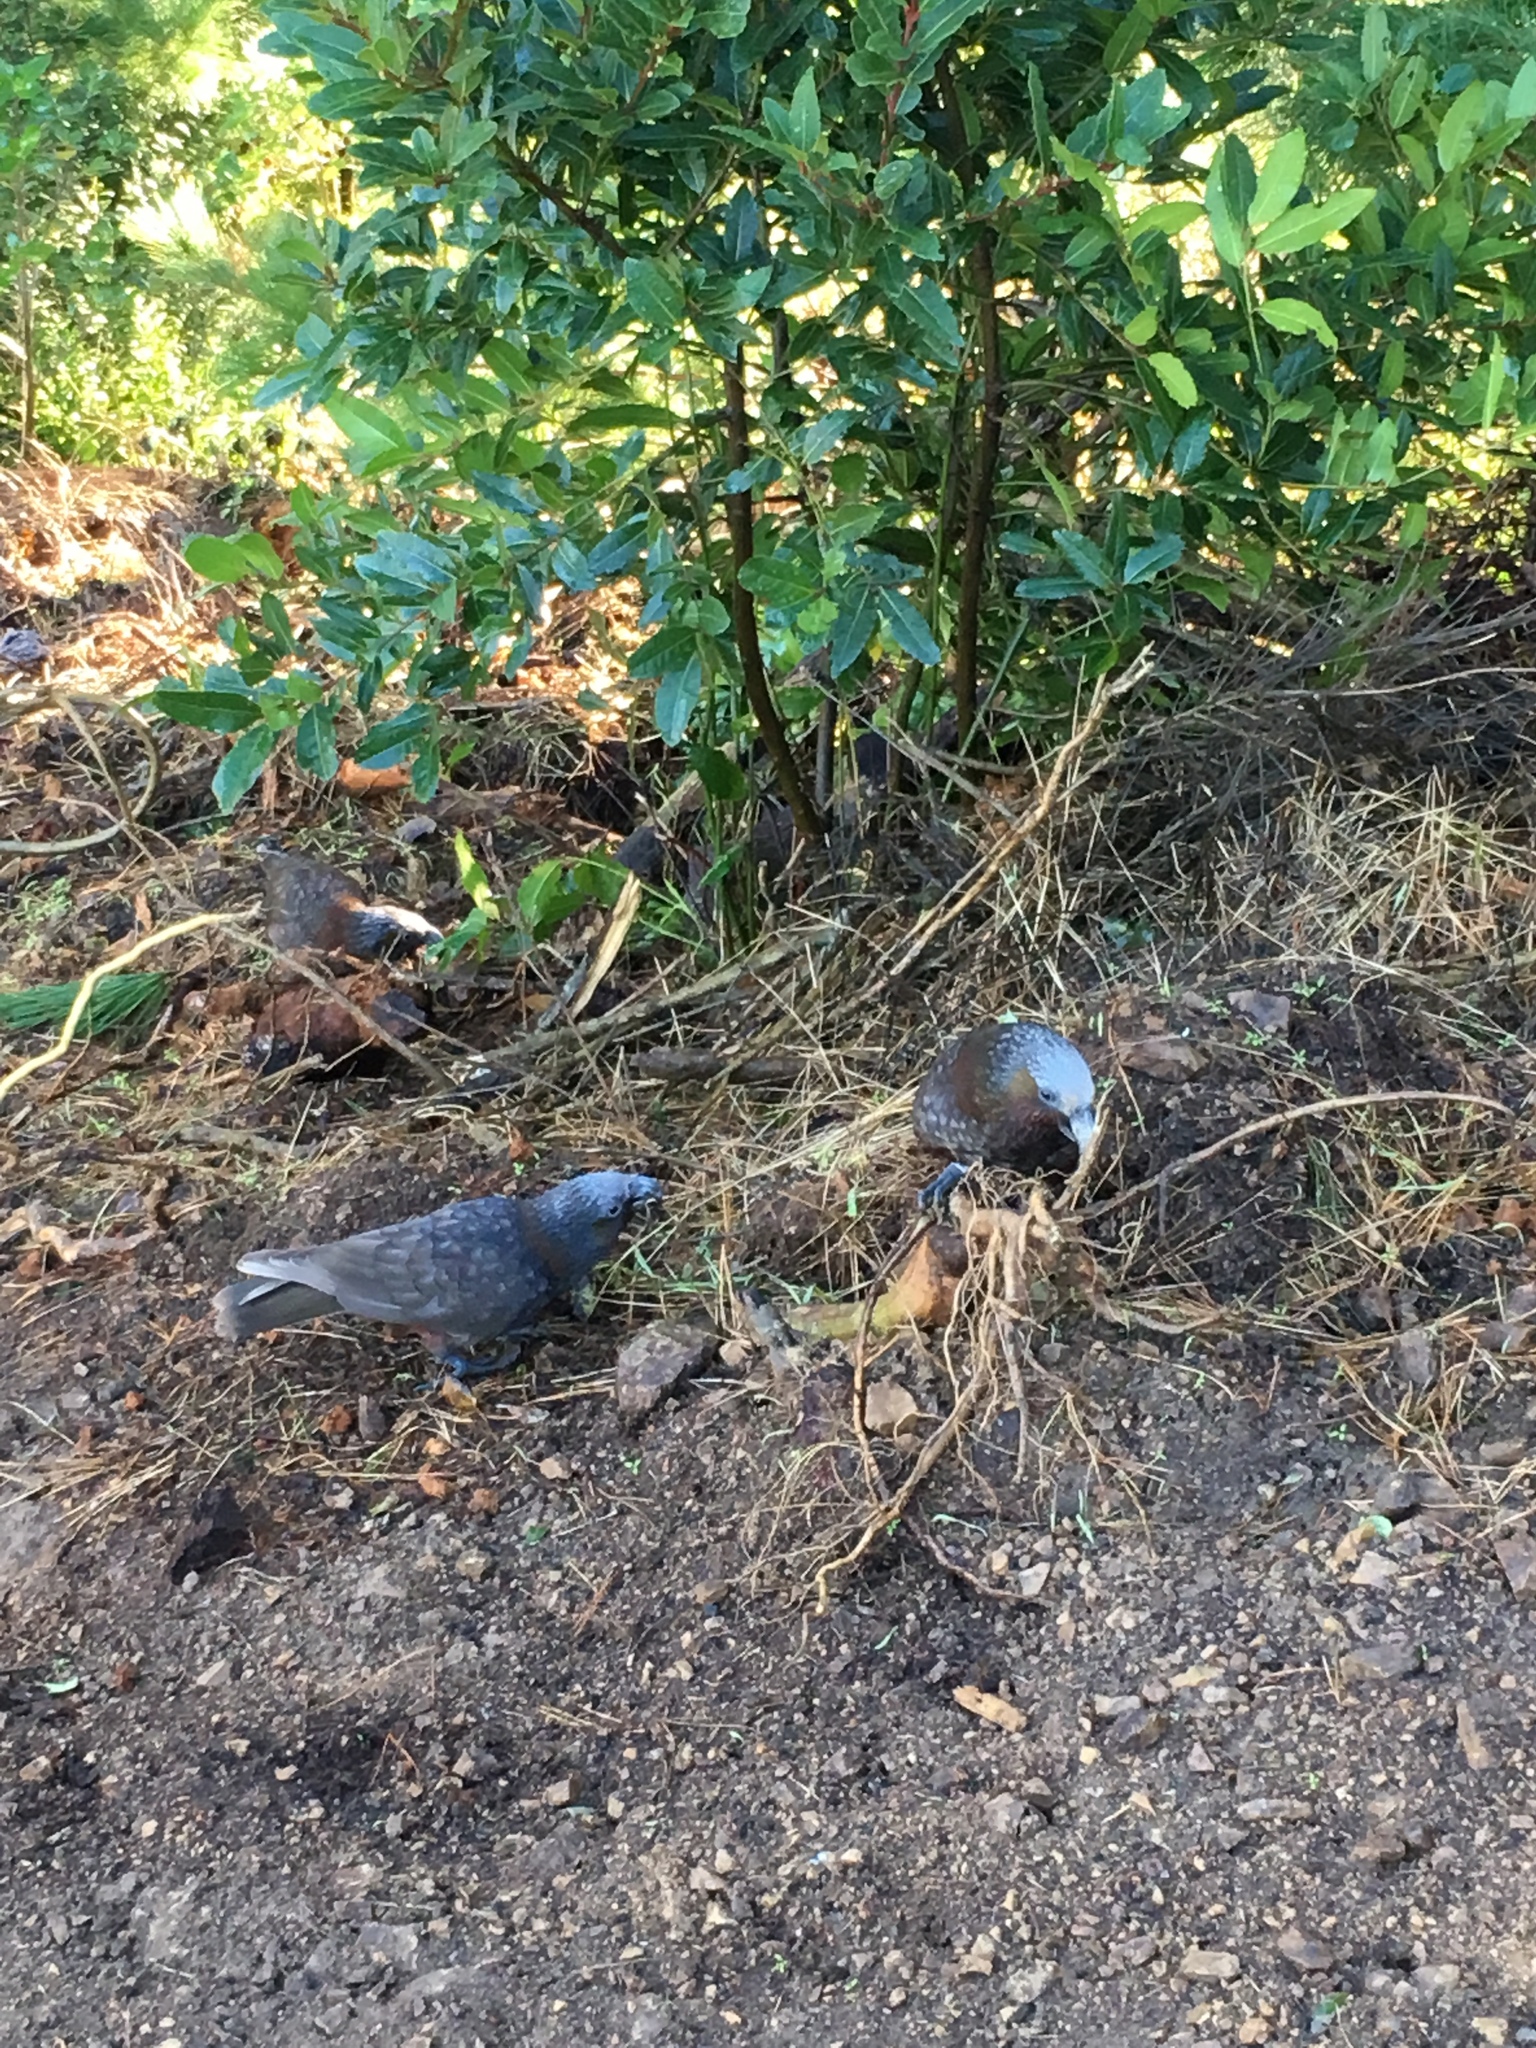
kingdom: Animalia
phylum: Chordata
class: Aves
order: Psittaciformes
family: Psittacidae
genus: Nestor
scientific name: Nestor meridionalis
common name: New zealand kaka
